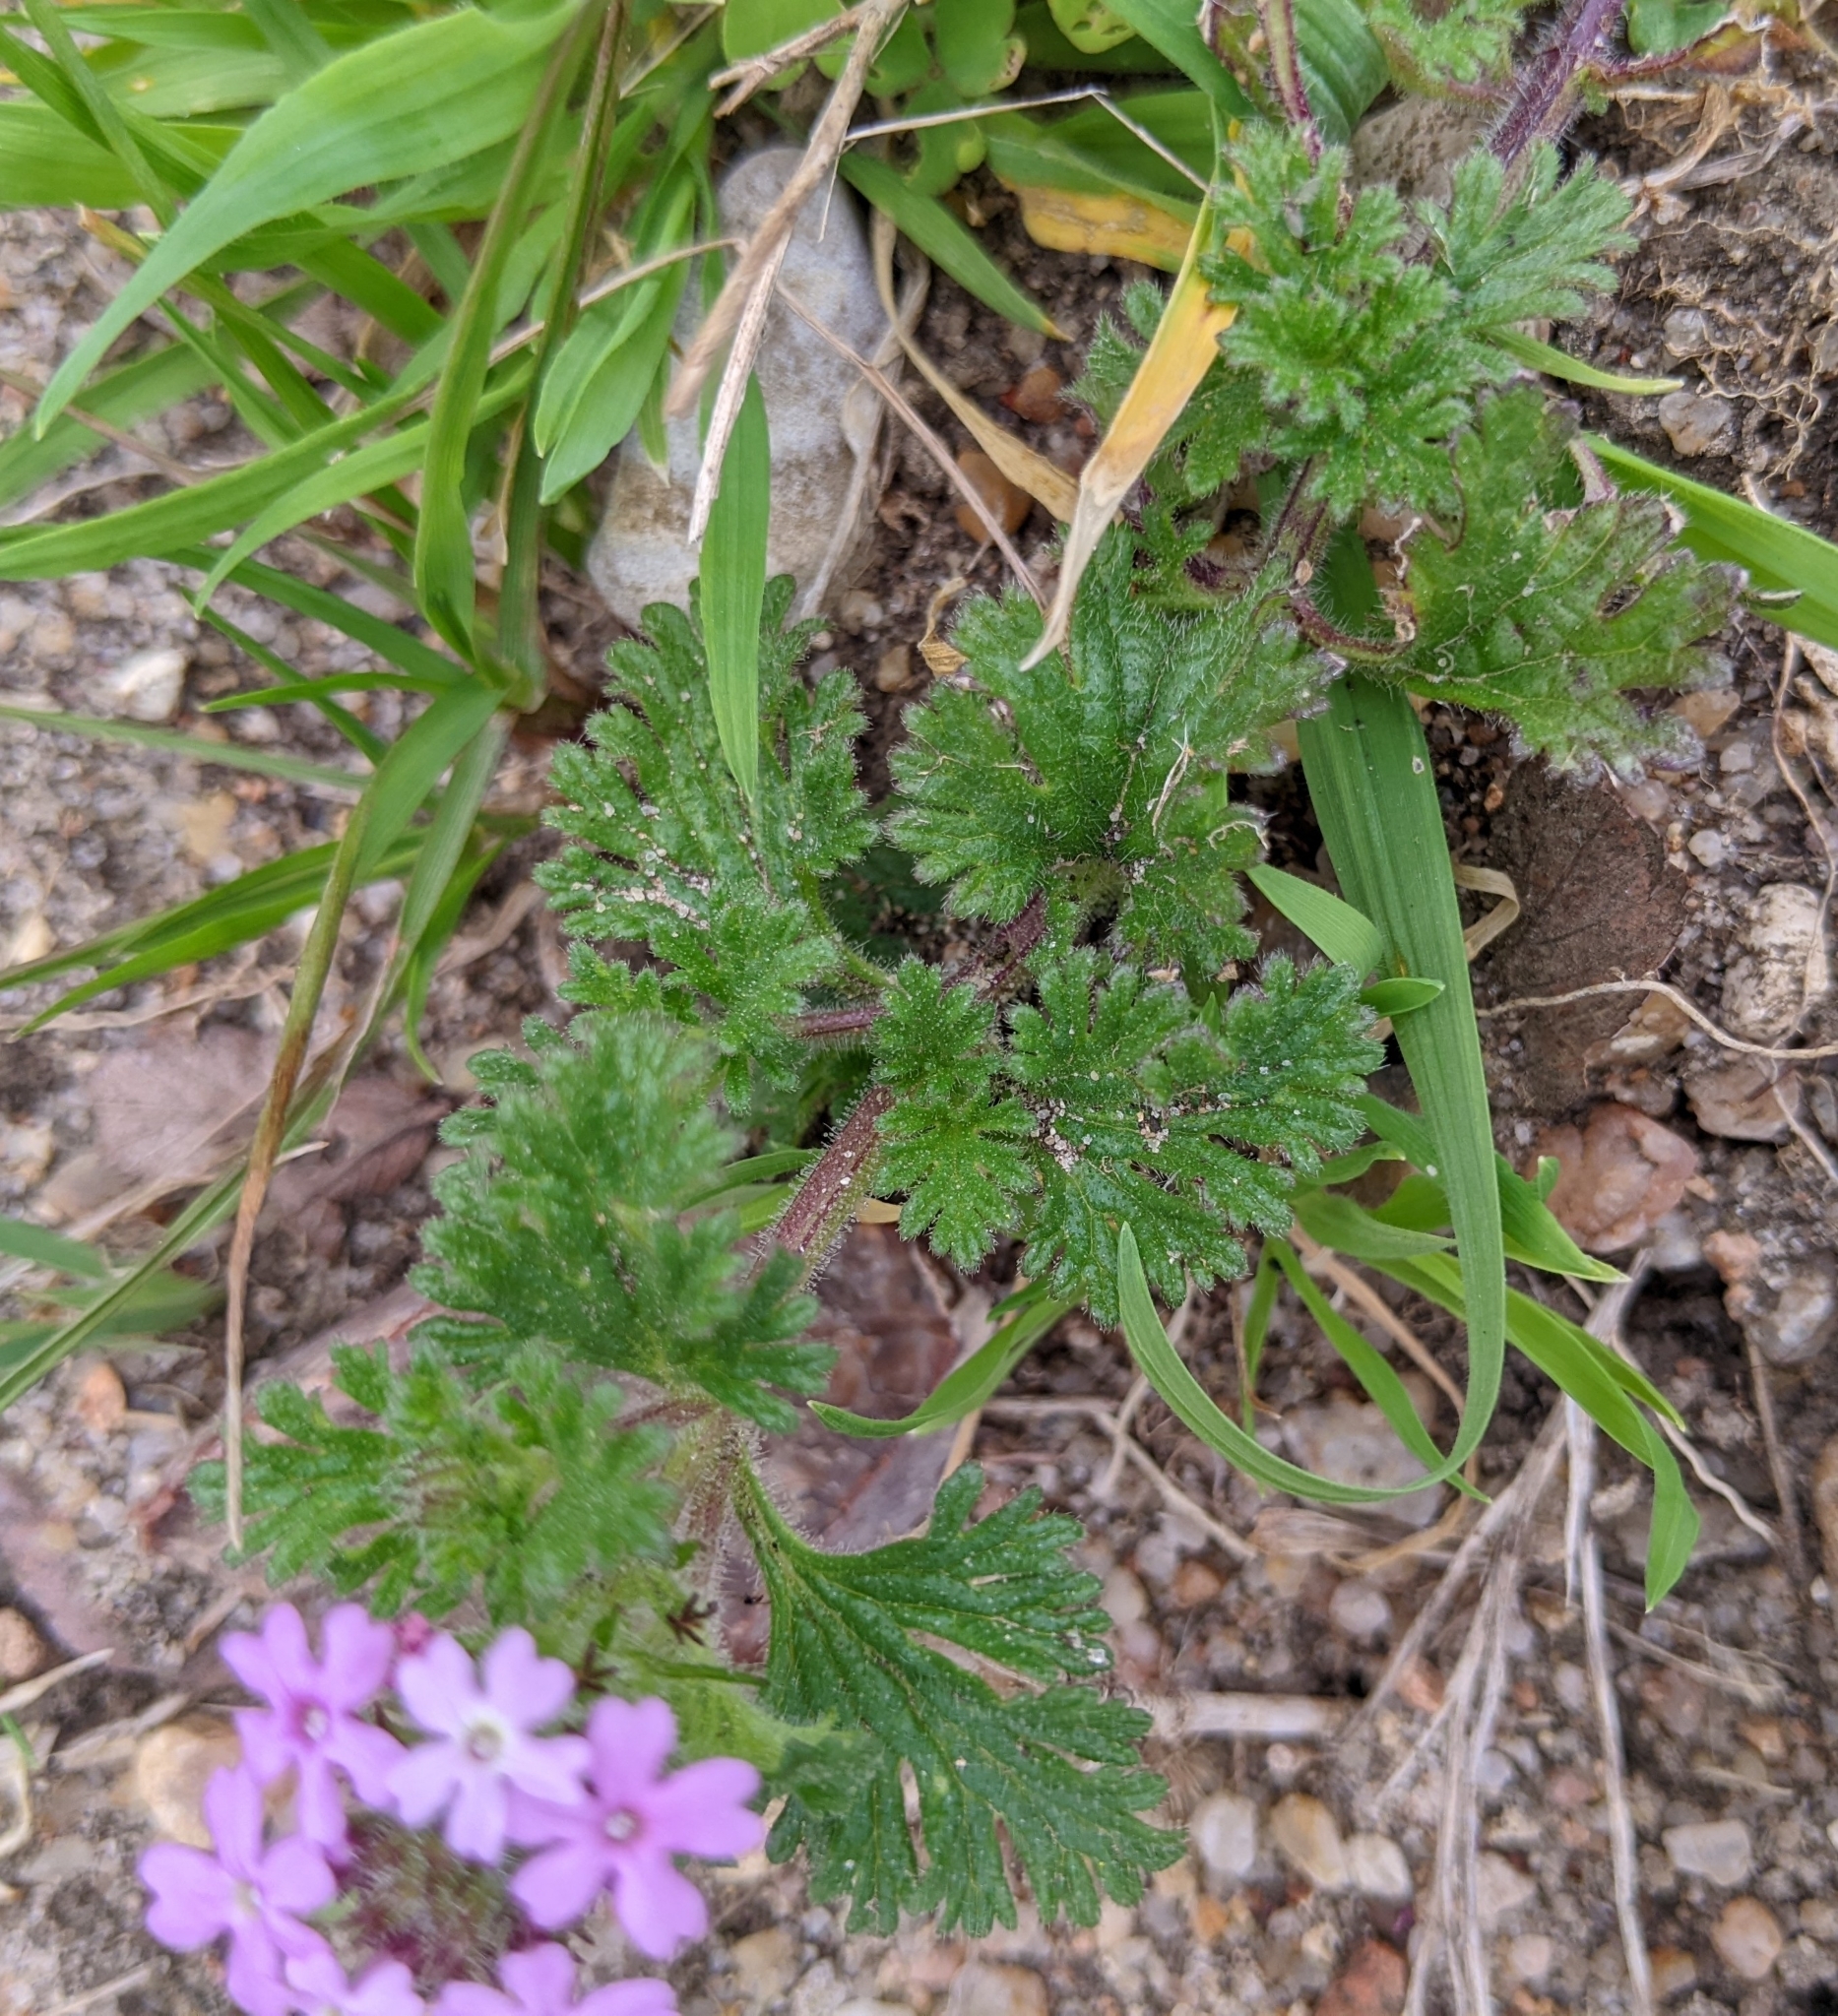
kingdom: Plantae
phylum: Tracheophyta
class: Magnoliopsida
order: Lamiales
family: Verbenaceae
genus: Verbena
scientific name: Verbena pumila
